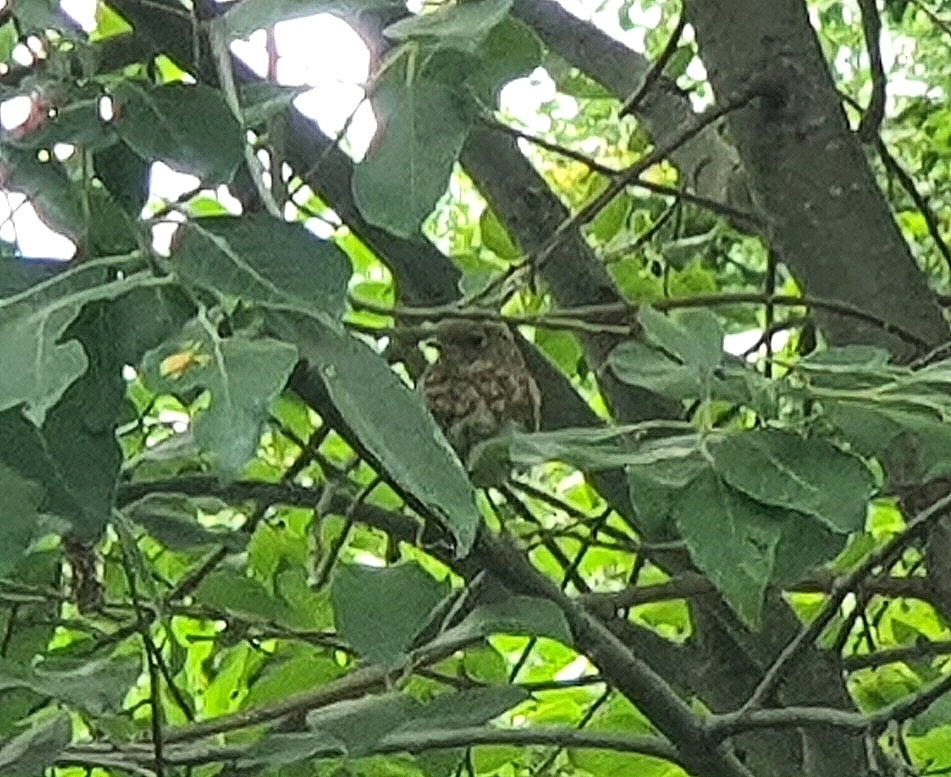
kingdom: Animalia
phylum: Chordata
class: Aves
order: Passeriformes
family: Muscicapidae
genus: Erithacus
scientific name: Erithacus rubecula
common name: European robin
